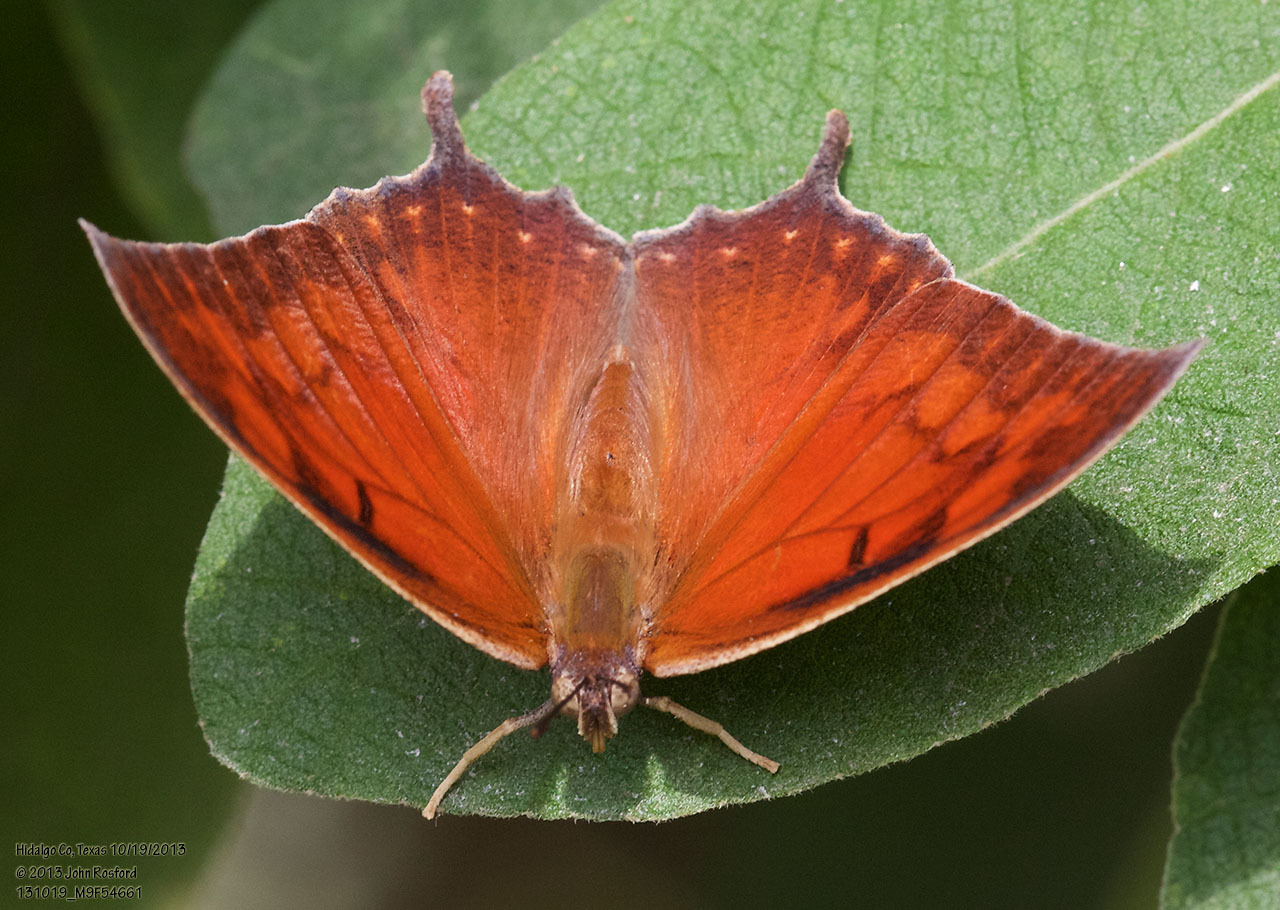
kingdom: Animalia
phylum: Arthropoda
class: Insecta
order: Lepidoptera
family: Nymphalidae
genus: Anaea
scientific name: Anaea aidea
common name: Tropical leafwing
